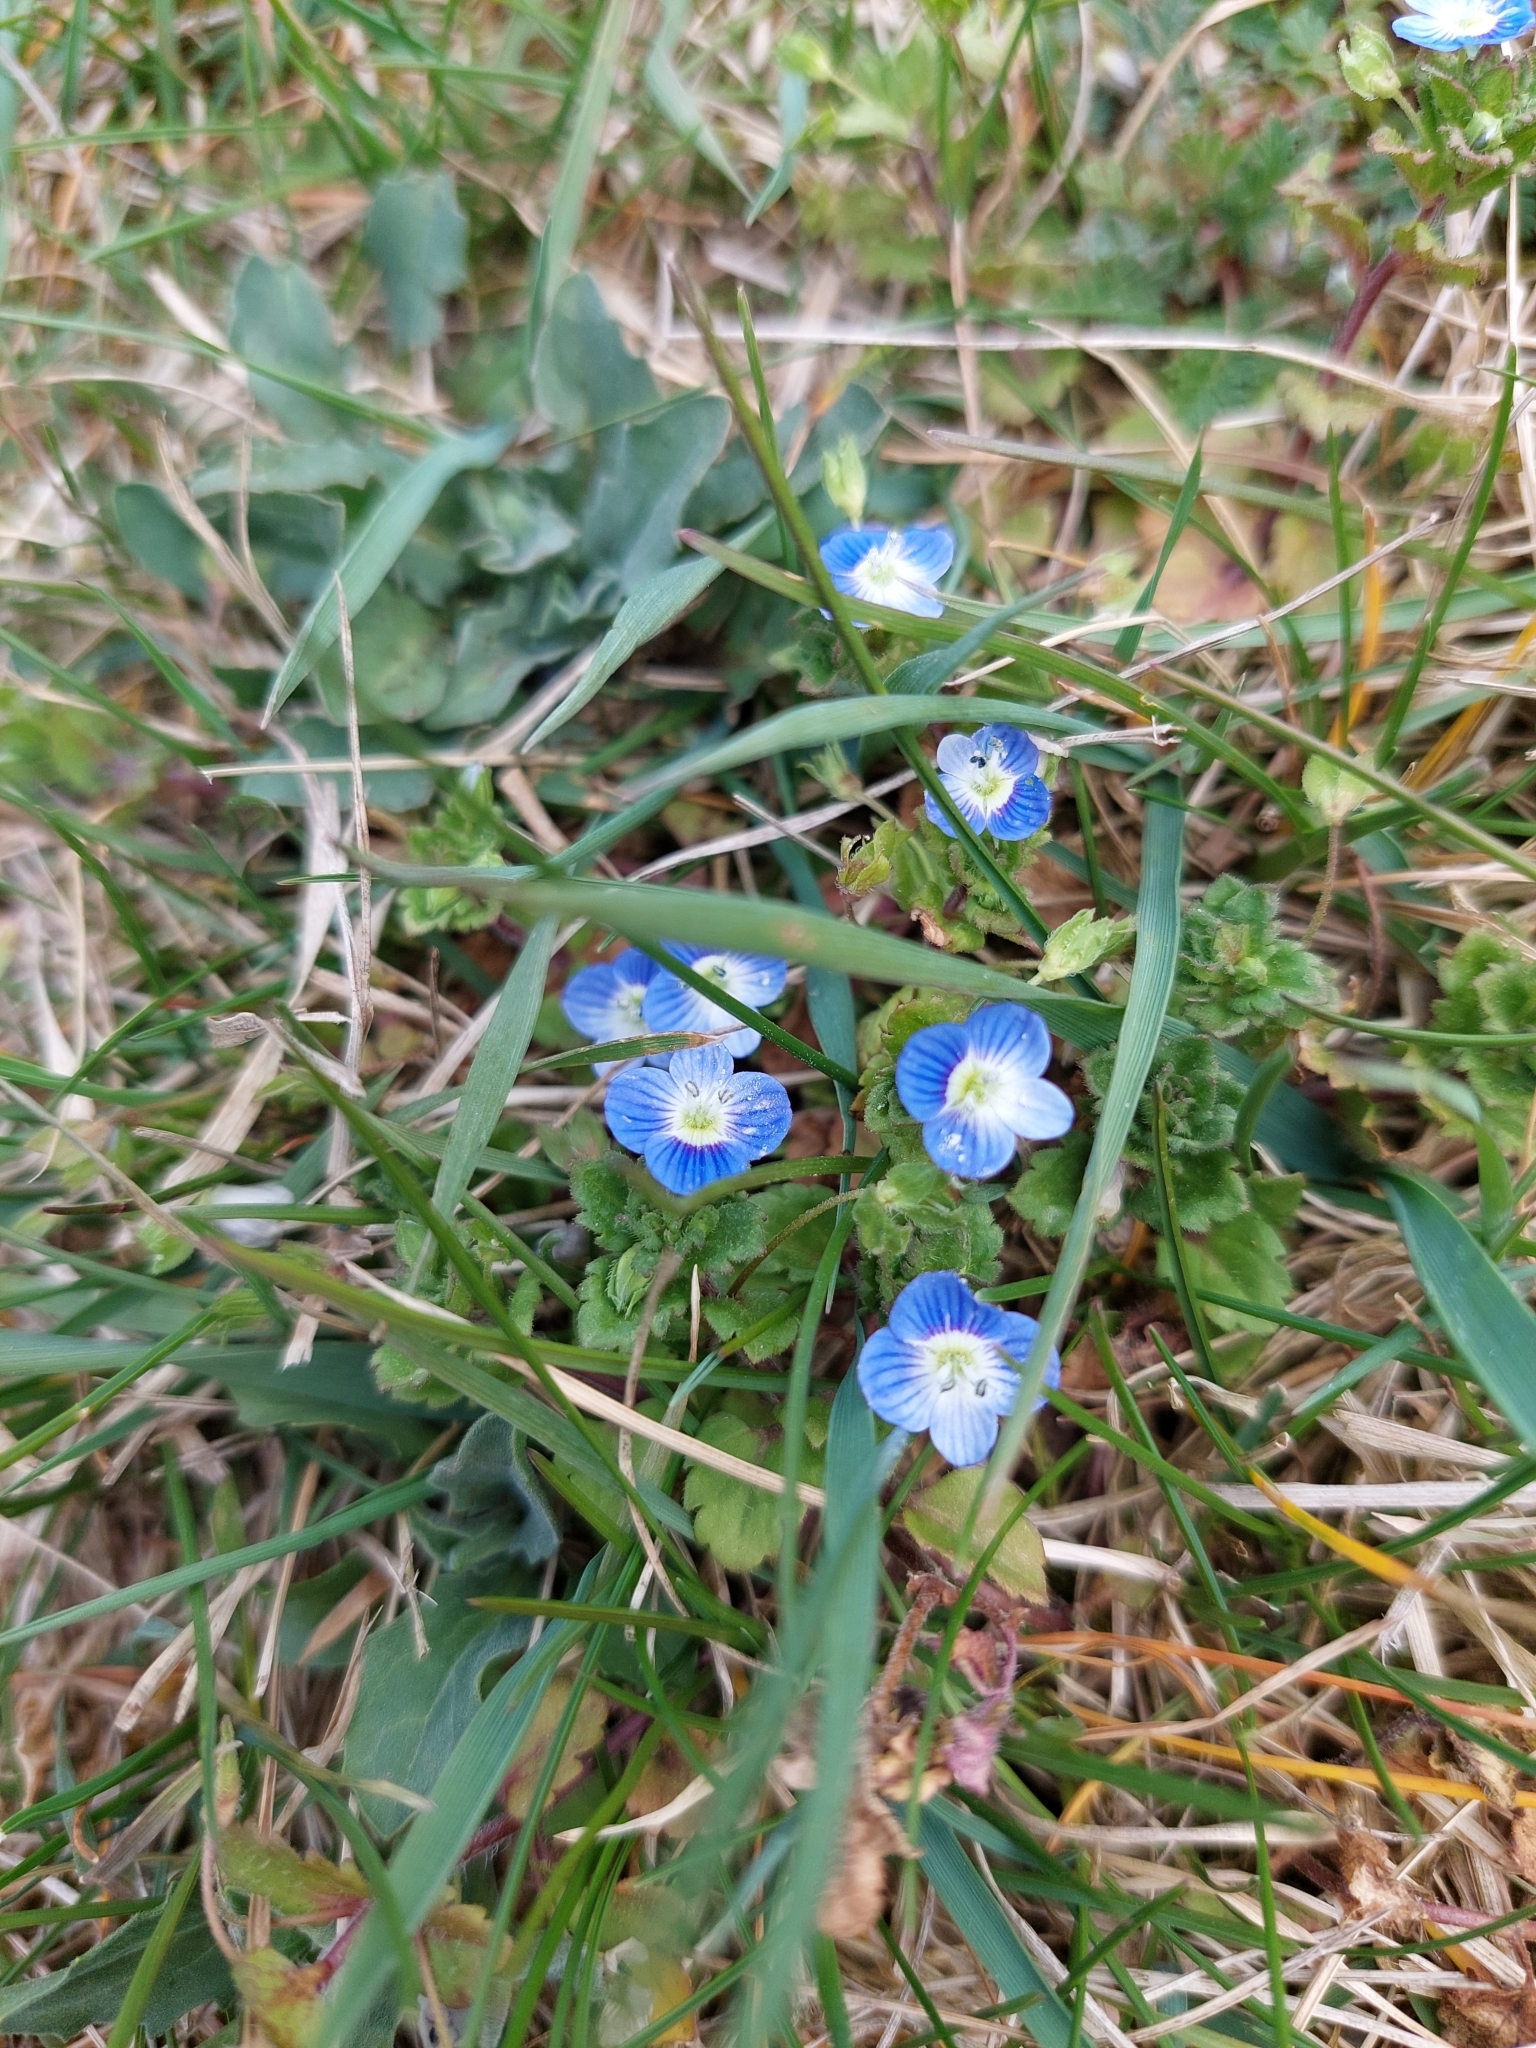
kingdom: Plantae
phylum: Tracheophyta
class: Magnoliopsida
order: Lamiales
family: Plantaginaceae
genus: Veronica
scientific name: Veronica persica
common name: Common field-speedwell
